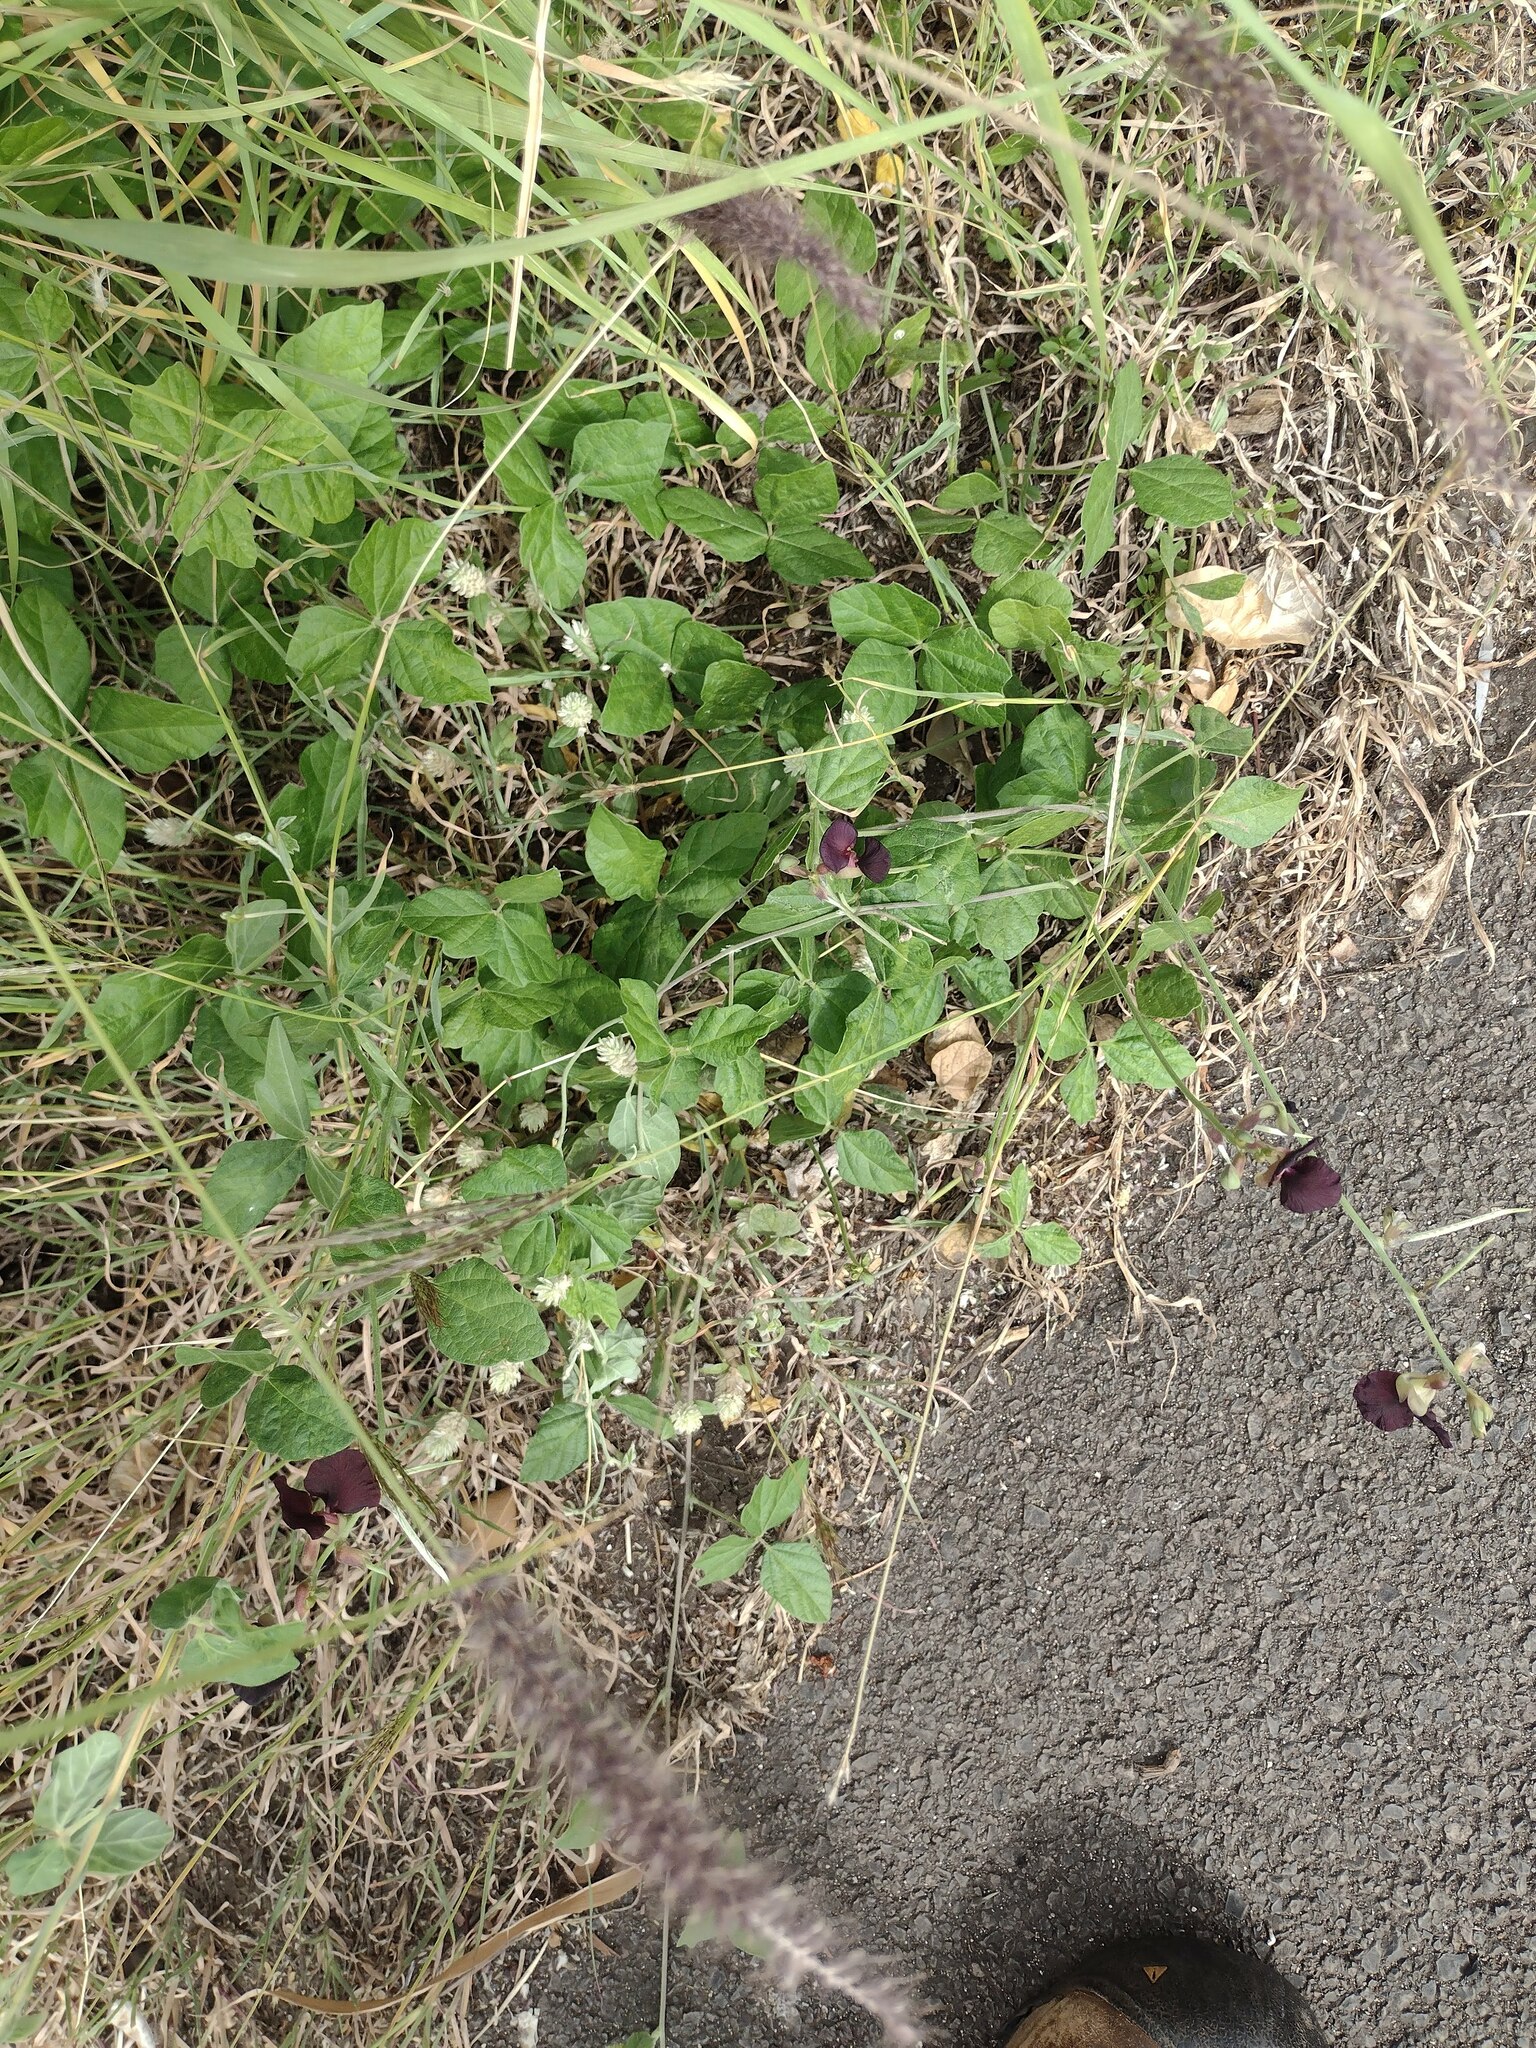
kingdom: Plantae
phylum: Tracheophyta
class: Magnoliopsida
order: Fabales
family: Fabaceae
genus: Macroptilium
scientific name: Macroptilium atropurpureum
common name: Purple bushbean
